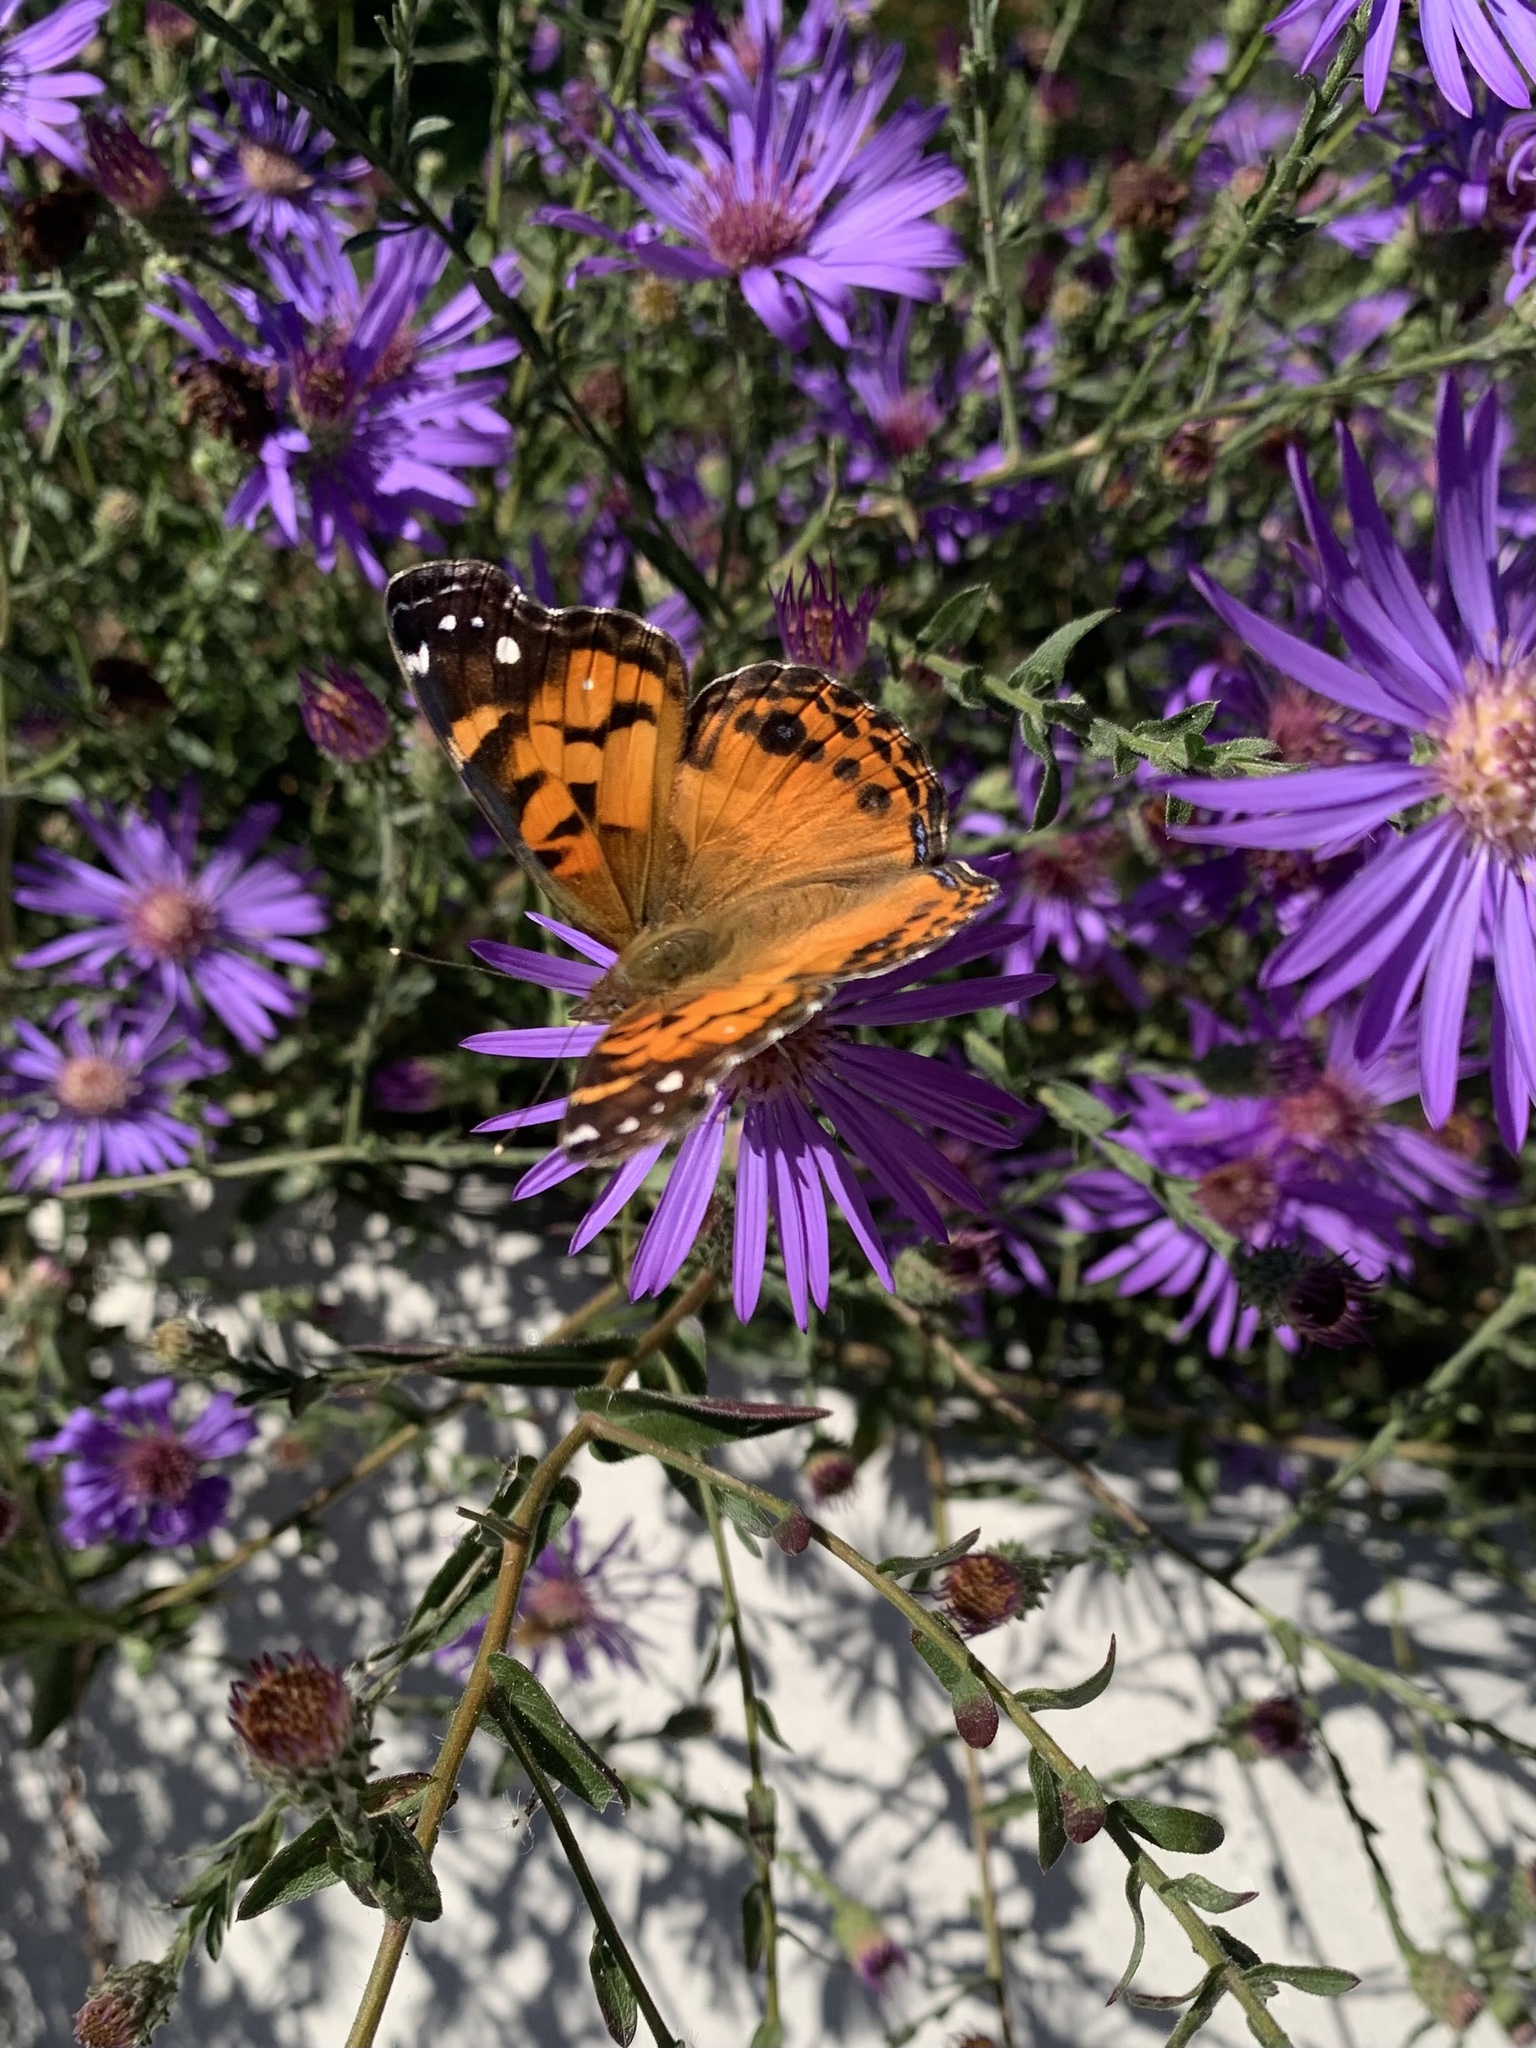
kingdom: Animalia
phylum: Arthropoda
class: Insecta
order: Lepidoptera
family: Nymphalidae
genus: Vanessa
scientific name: Vanessa virginiensis
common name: American lady
